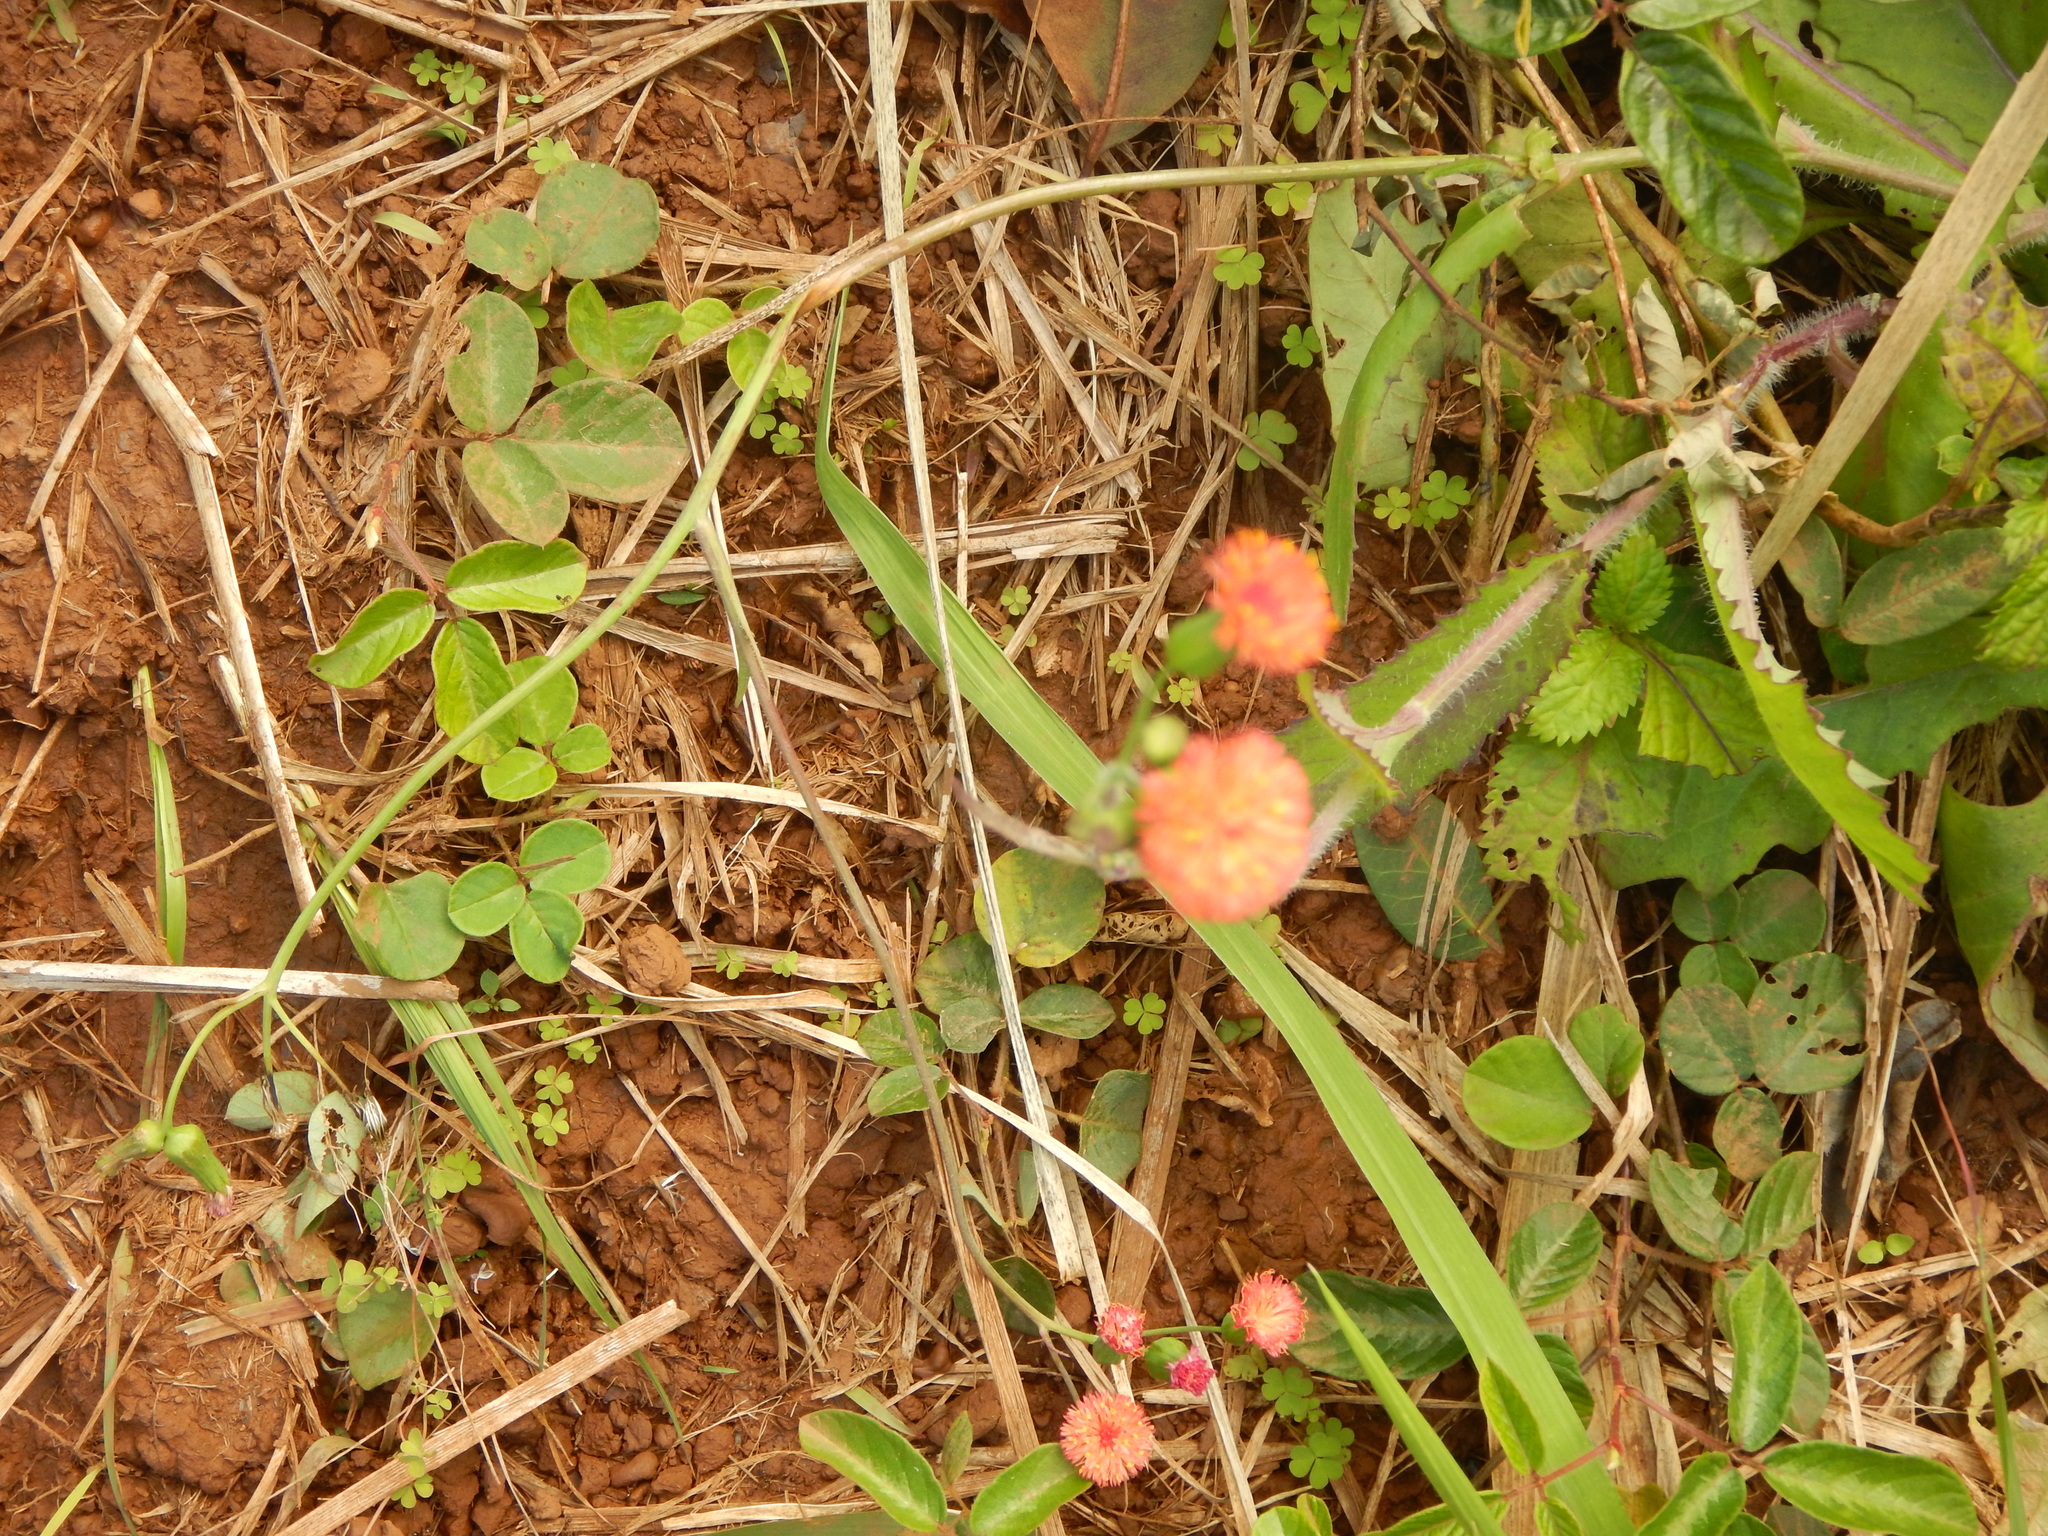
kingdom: Plantae
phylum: Tracheophyta
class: Magnoliopsida
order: Asterales
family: Asteraceae
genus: Emilia
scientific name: Emilia fosbergii
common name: Florida tasselflower
